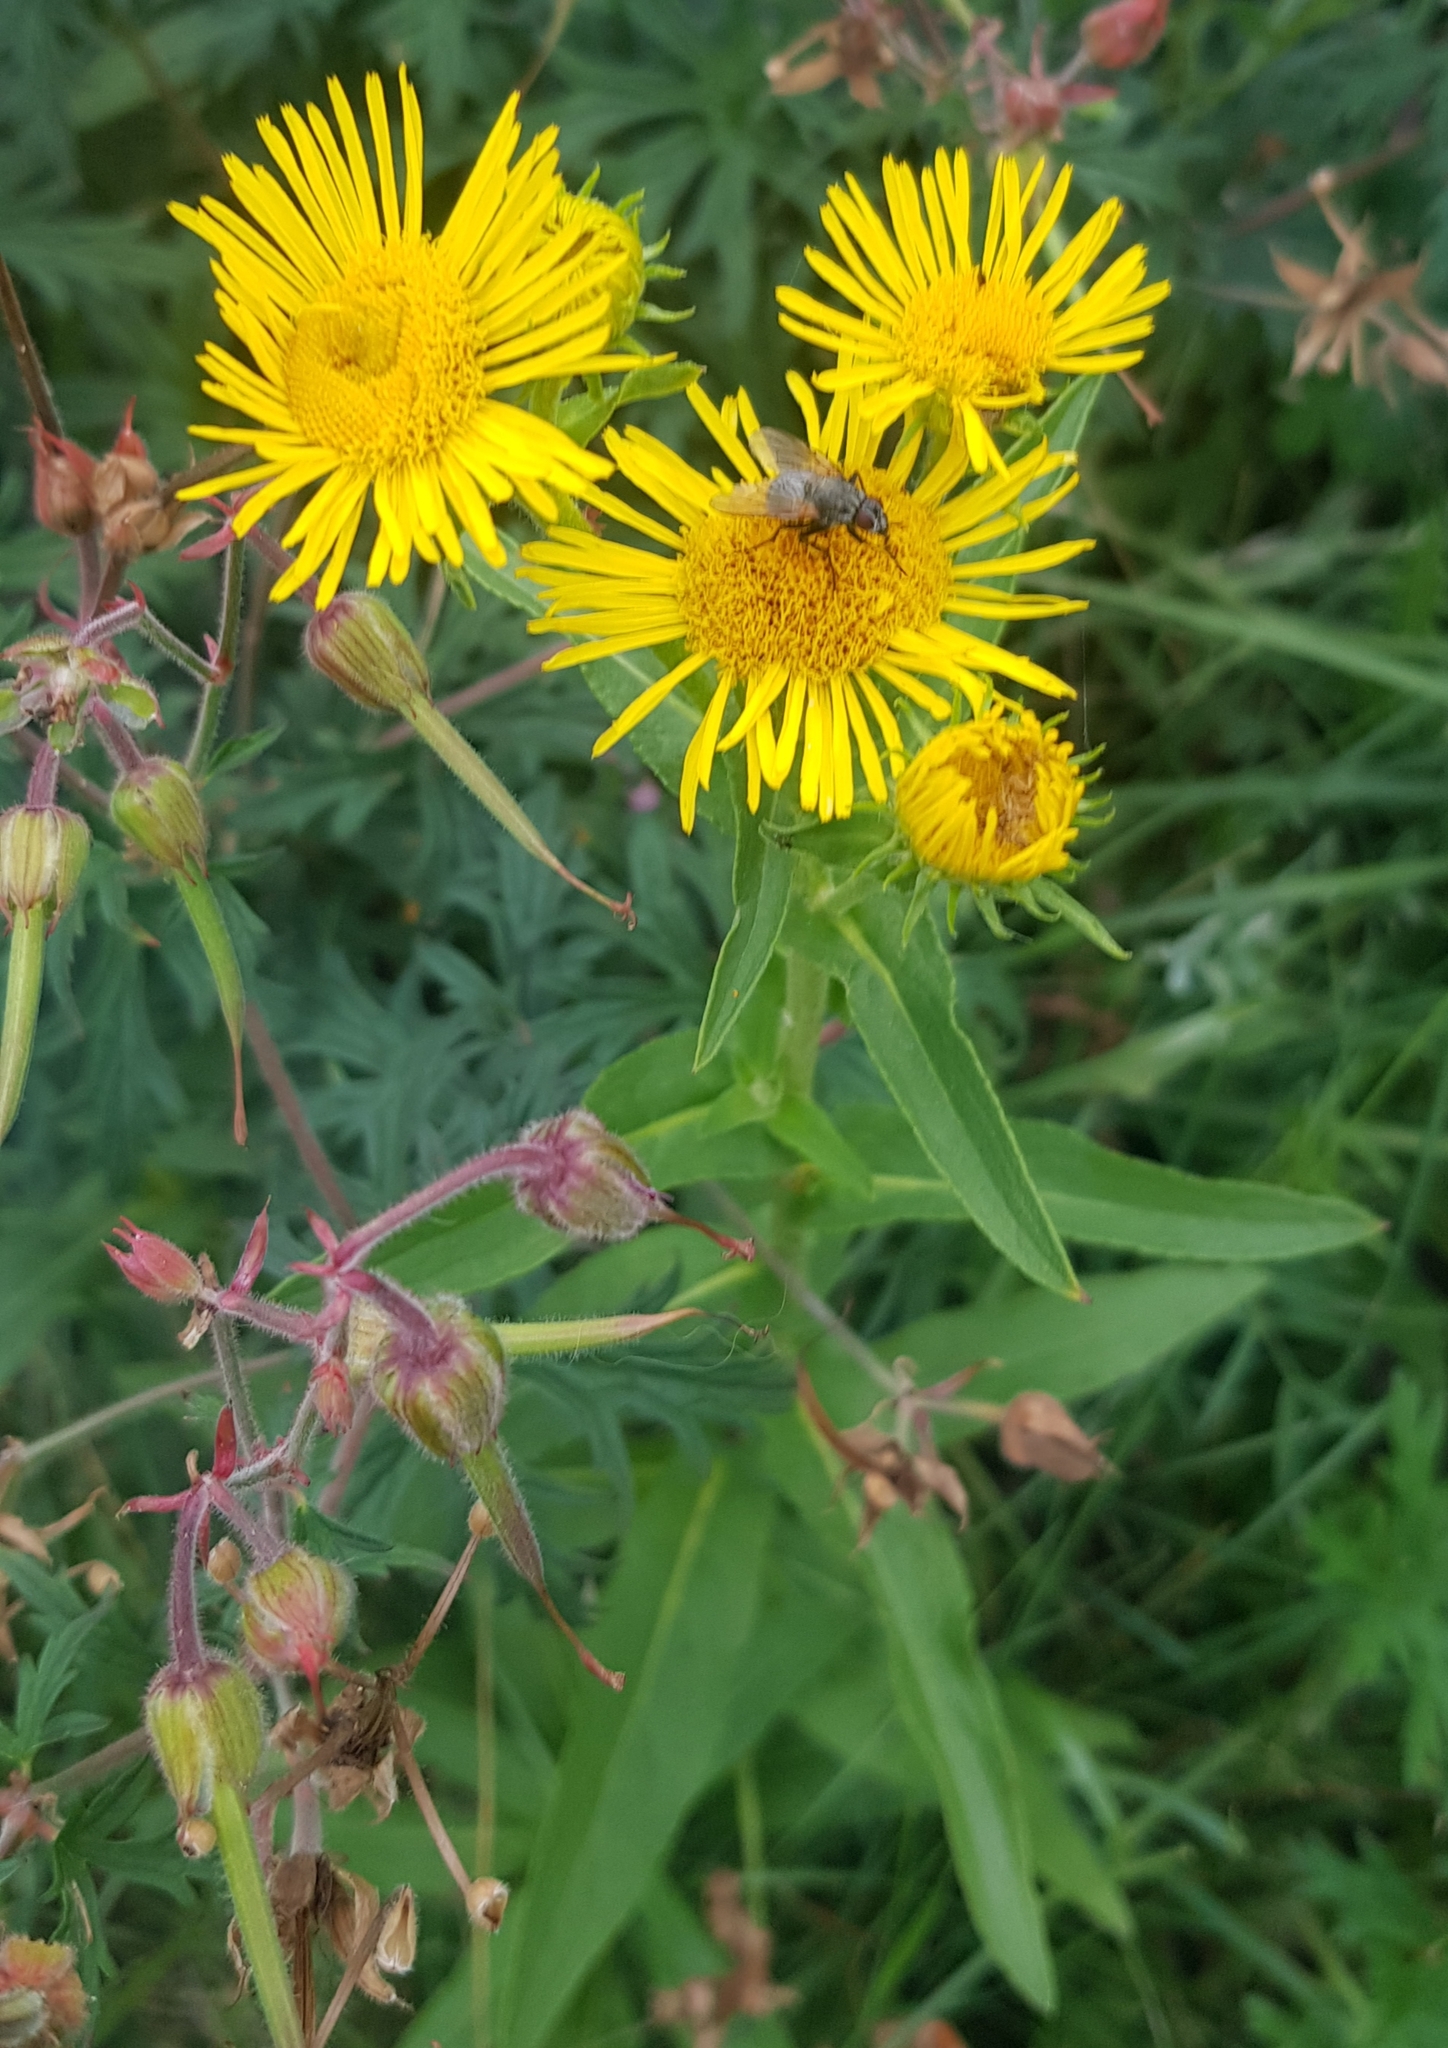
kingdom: Plantae
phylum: Tracheophyta
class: Magnoliopsida
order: Asterales
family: Asteraceae
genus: Pentanema
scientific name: Pentanema britannicum
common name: British elecampane
